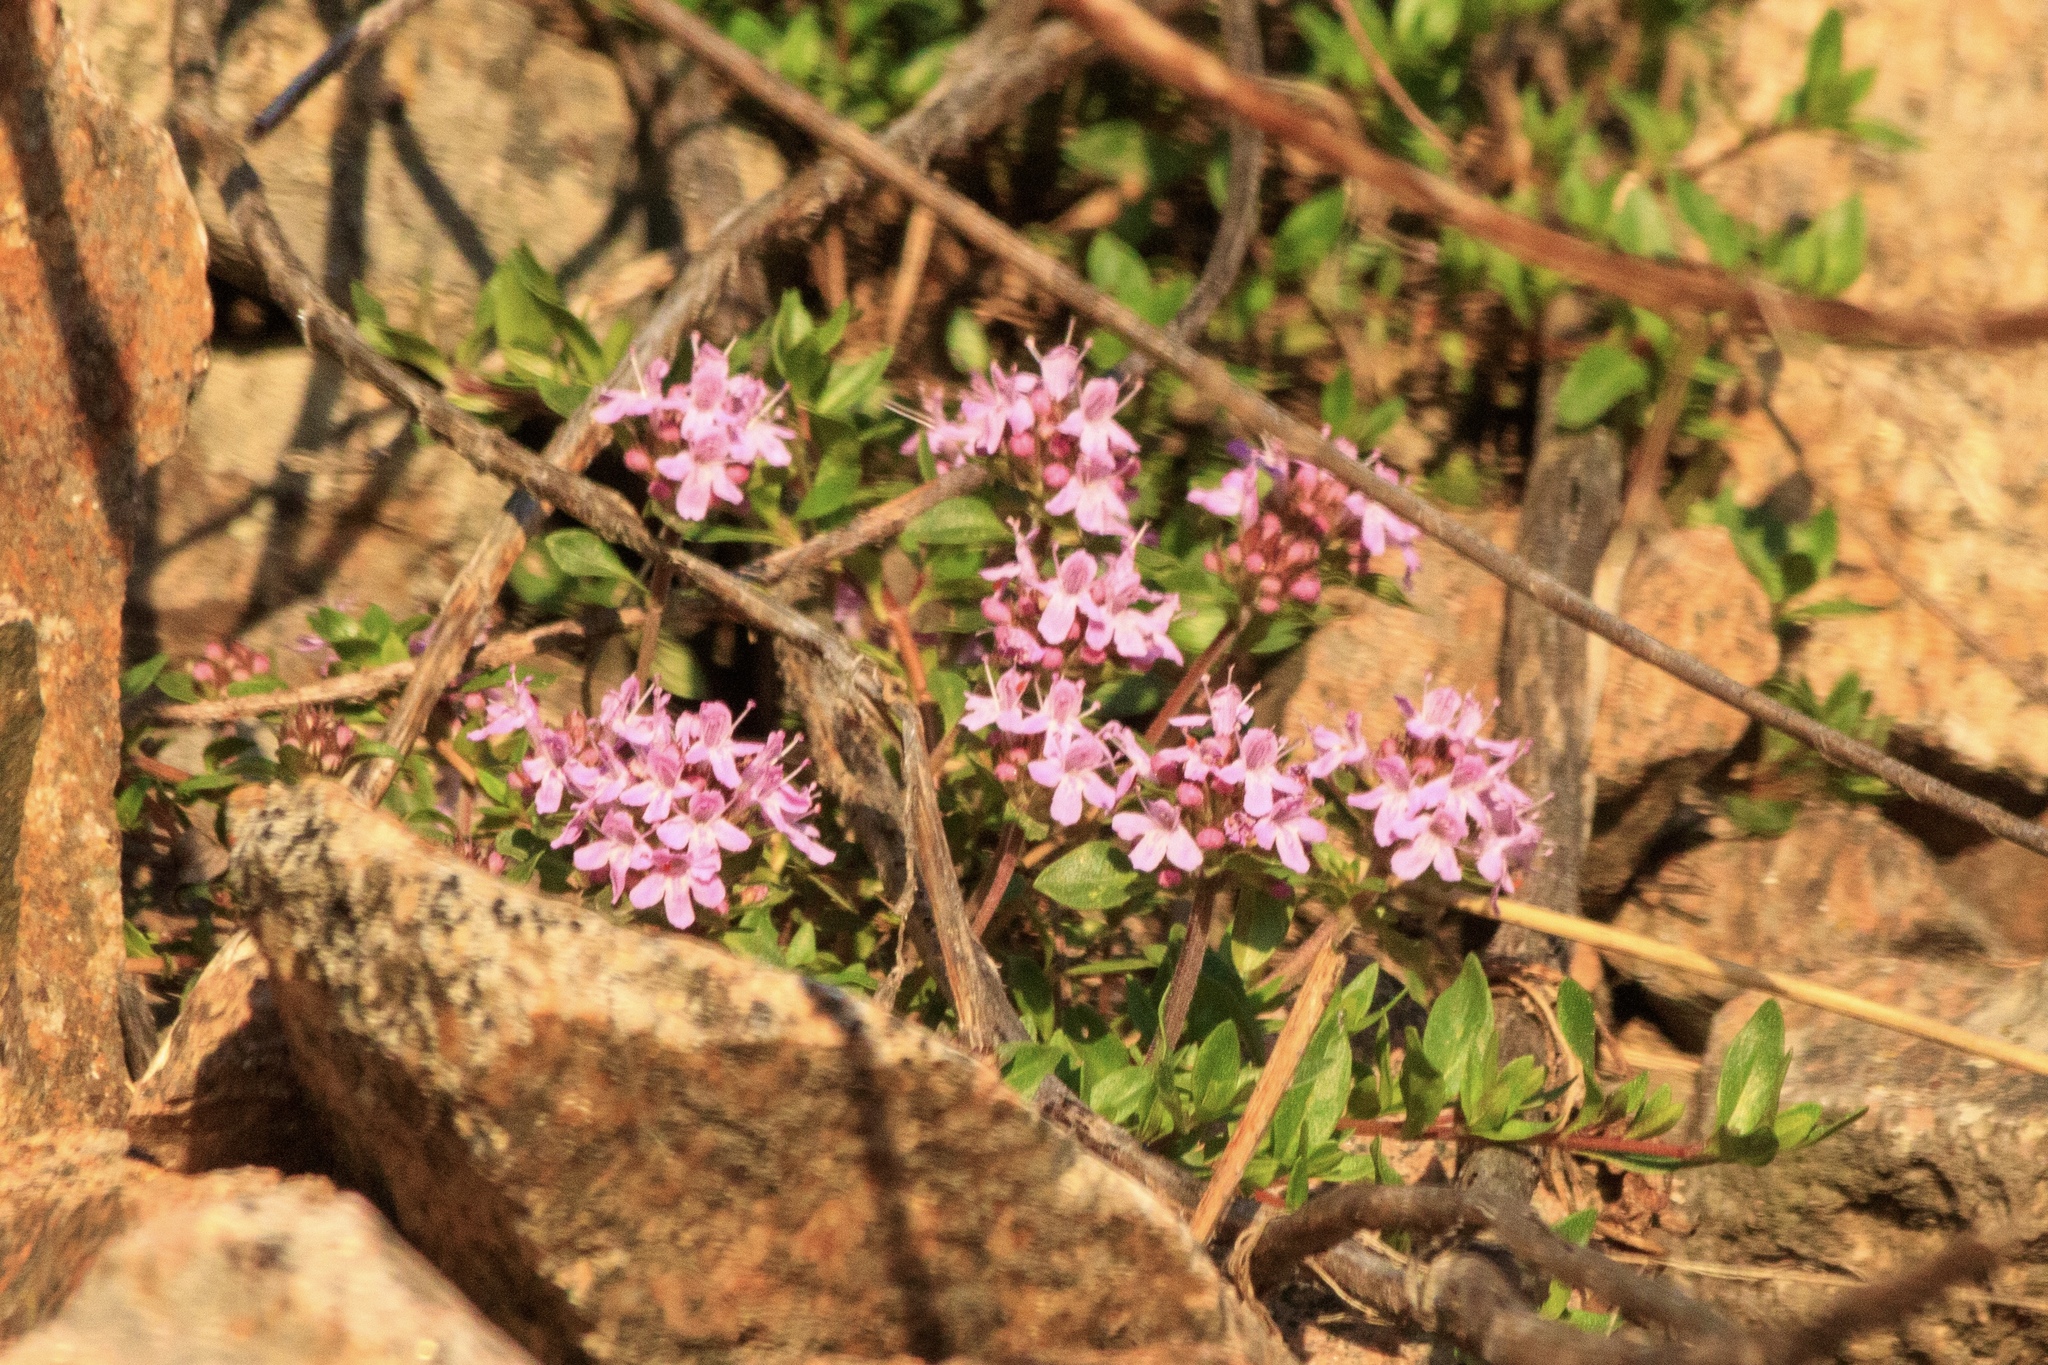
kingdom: Plantae
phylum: Tracheophyta
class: Magnoliopsida
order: Lamiales
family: Lamiaceae
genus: Thymus
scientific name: Thymus seravschanicus
